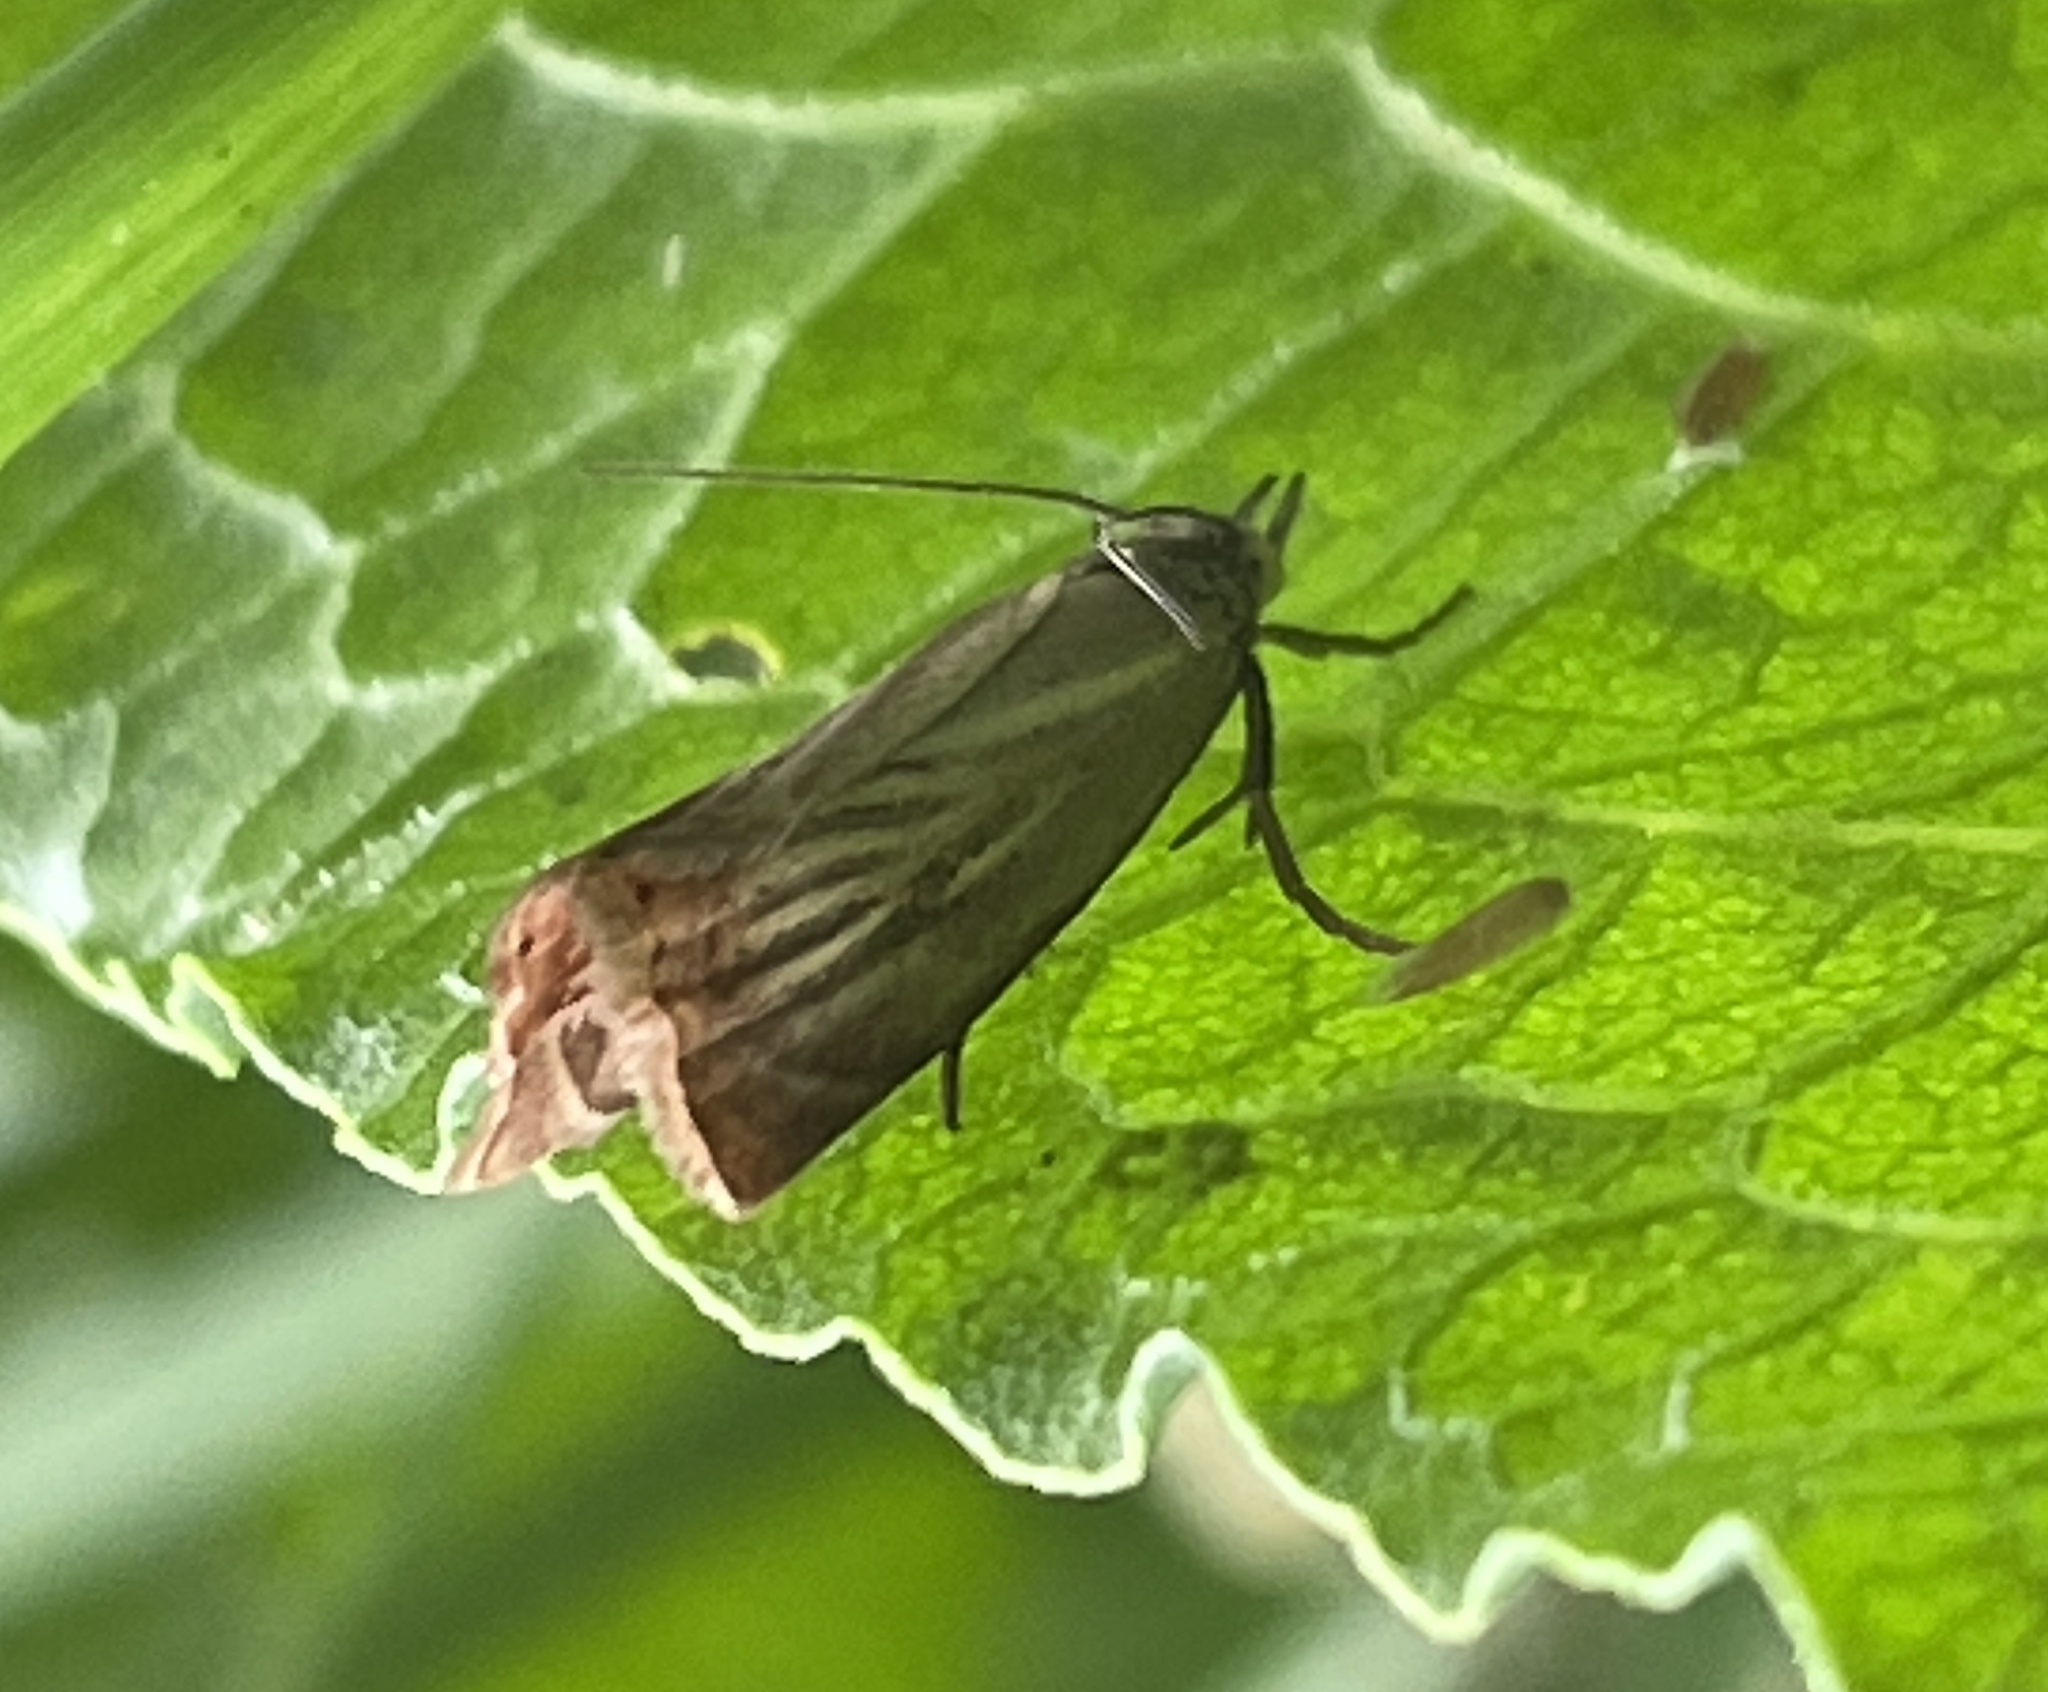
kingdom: Animalia
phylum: Arthropoda
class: Insecta
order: Lepidoptera
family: Crambidae
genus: Chrysoteuchia
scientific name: Chrysoteuchia culmella
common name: Garden grass-veneer
